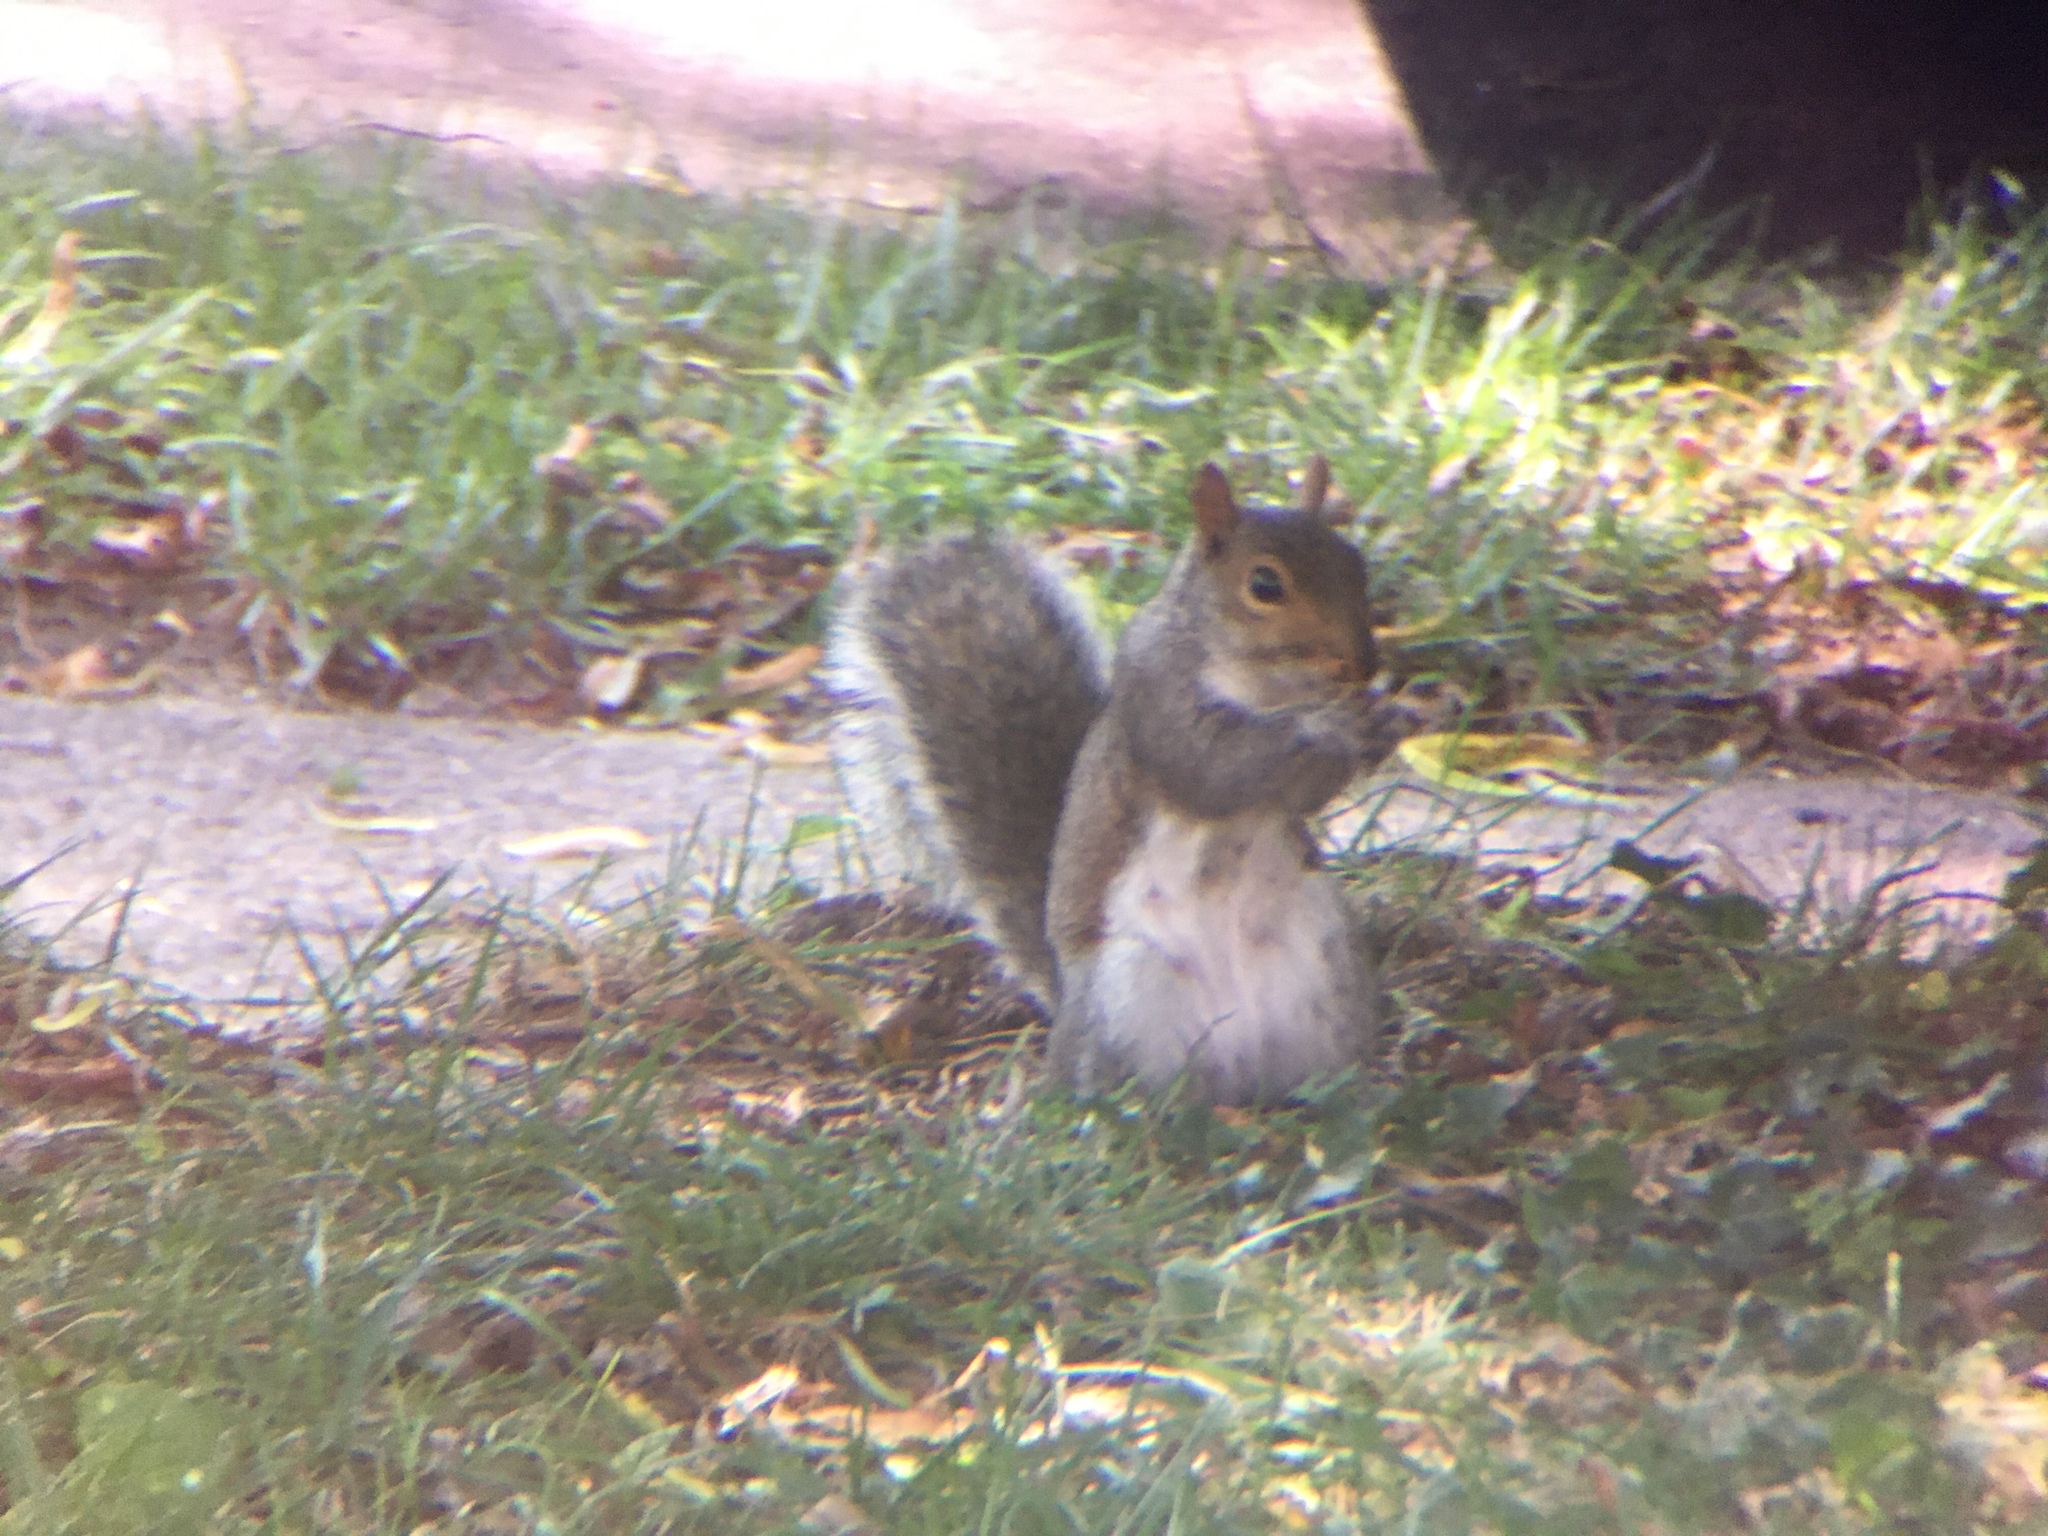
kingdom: Animalia
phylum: Chordata
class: Mammalia
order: Rodentia
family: Sciuridae
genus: Sciurus
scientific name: Sciurus carolinensis
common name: Eastern gray squirrel
